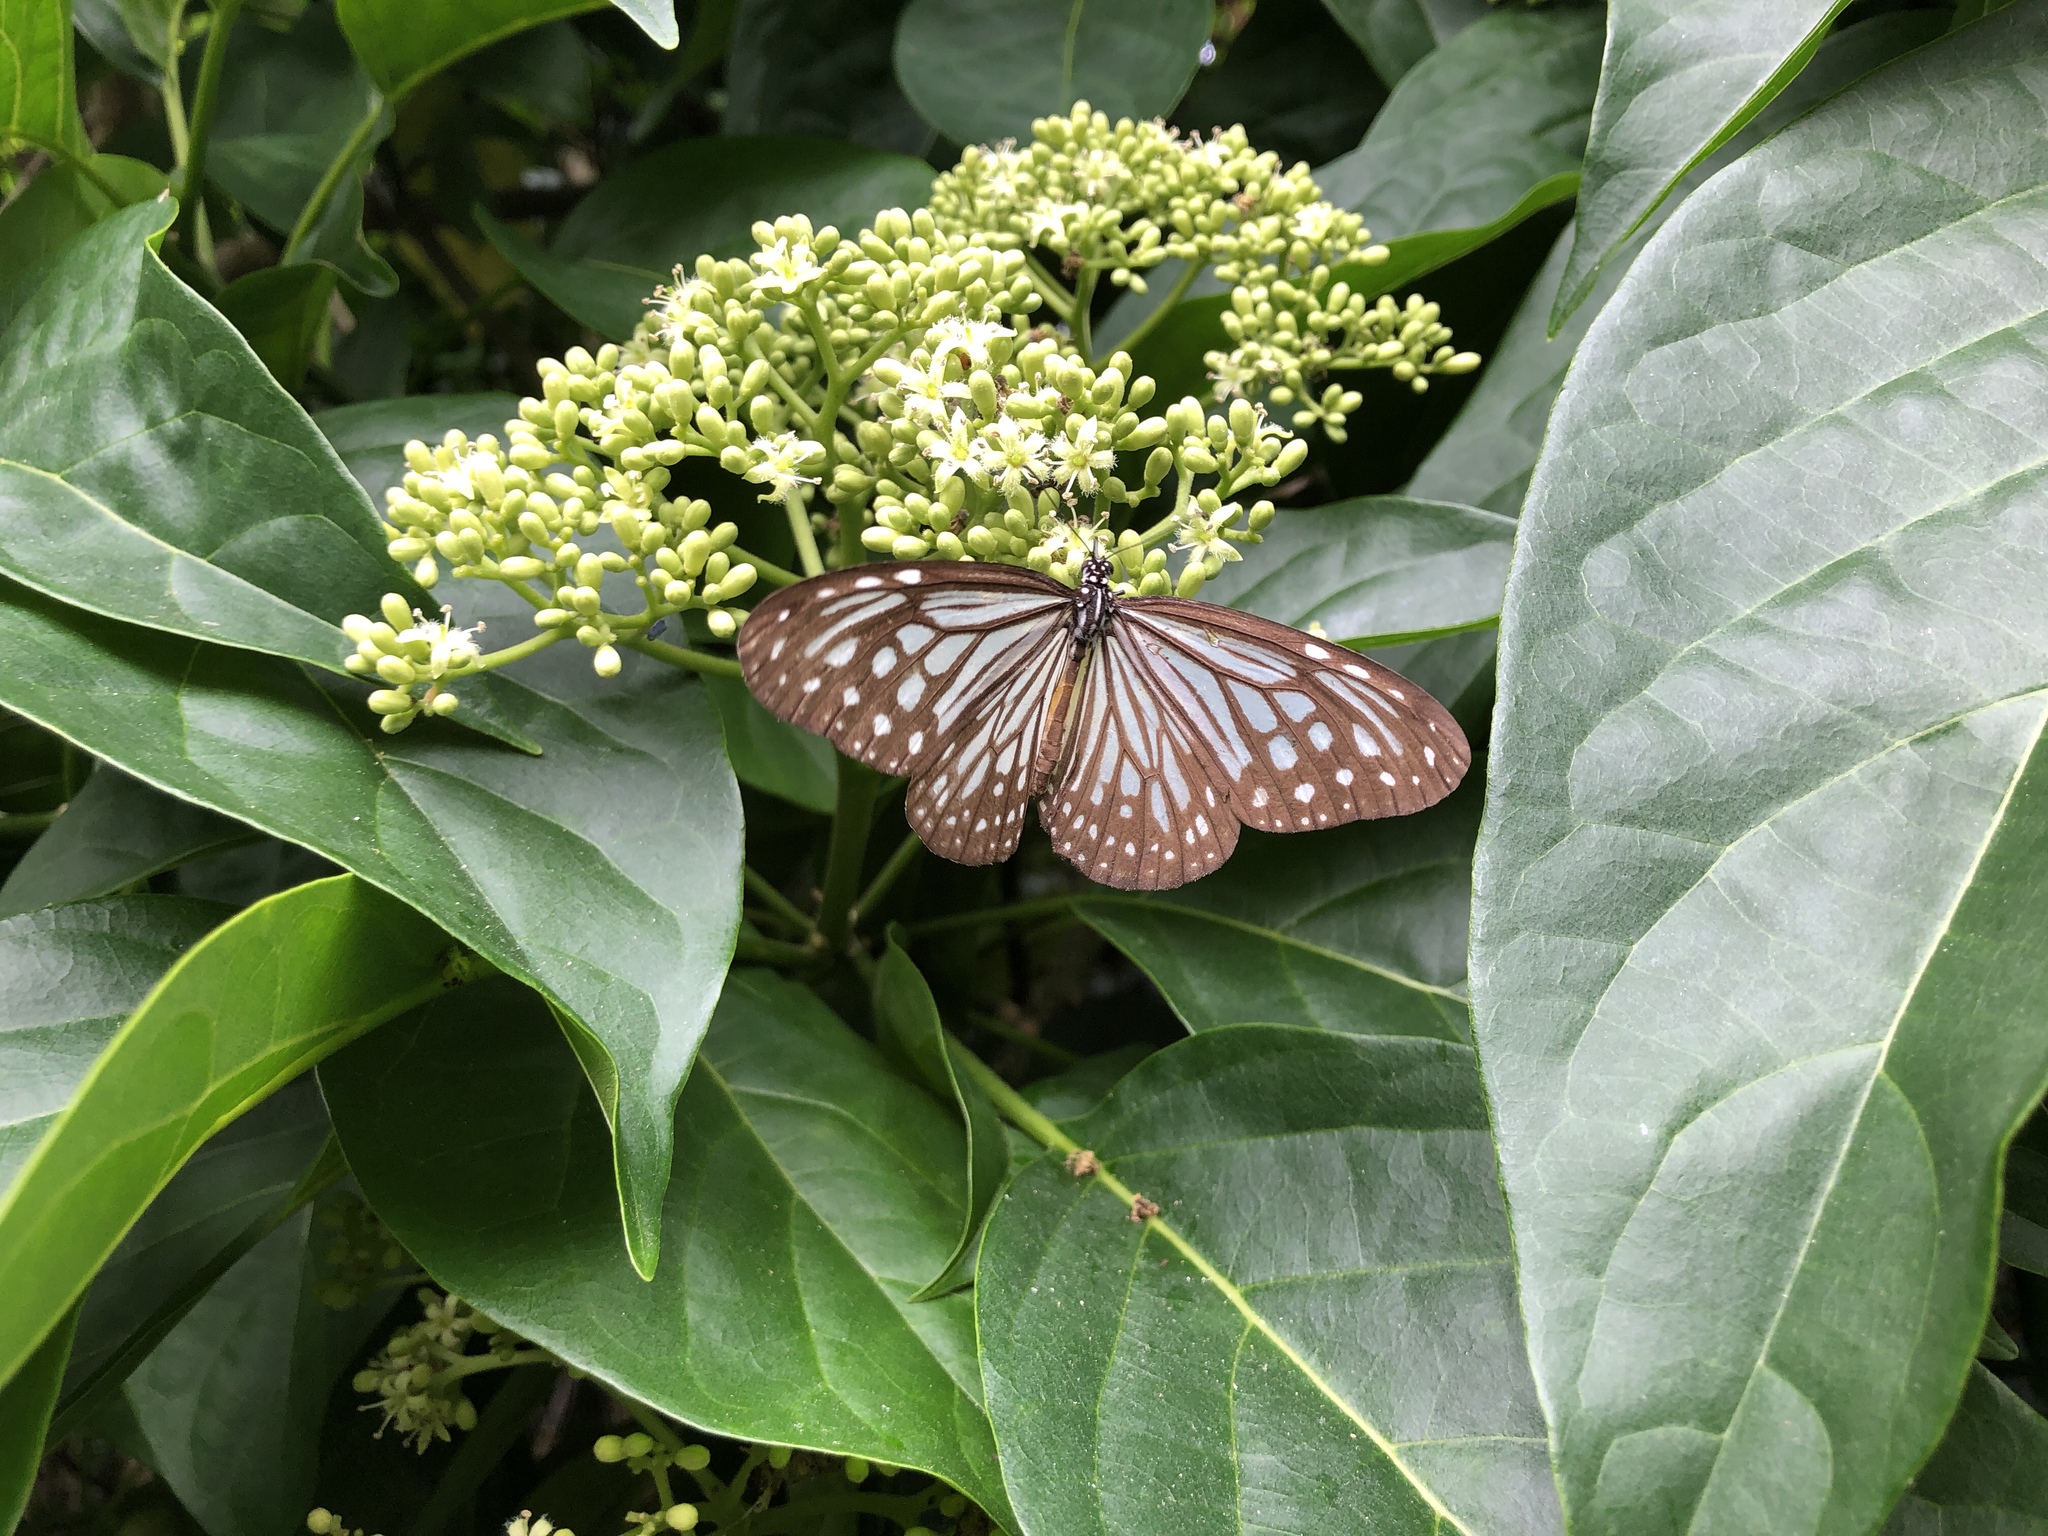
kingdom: Animalia
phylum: Arthropoda
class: Insecta
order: Lepidoptera
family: Nymphalidae
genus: Parantica
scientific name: Parantica aglea
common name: Glassy tiger
